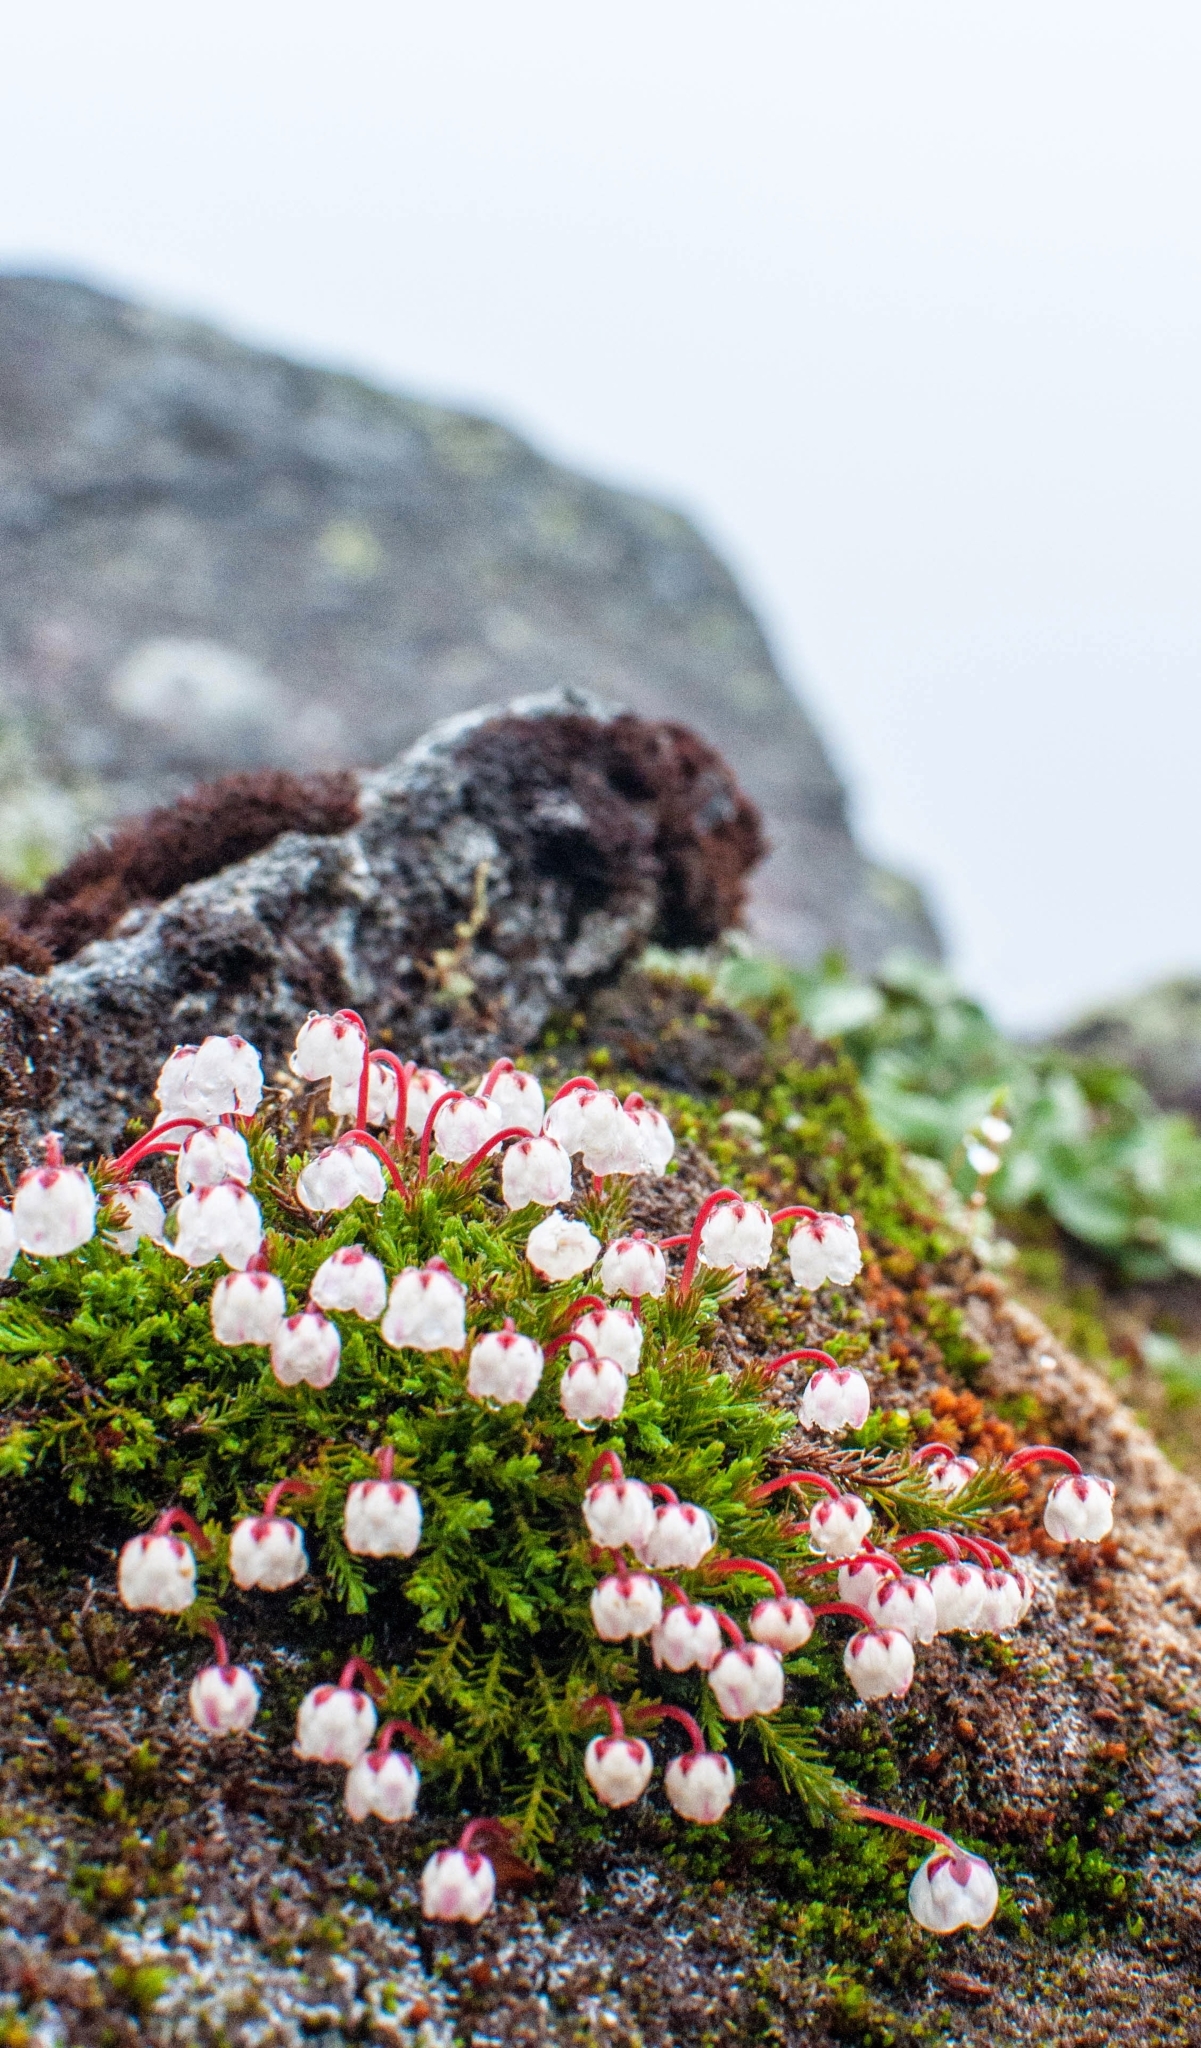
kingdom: Plantae
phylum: Tracheophyta
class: Magnoliopsida
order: Ericales
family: Ericaceae
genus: Harrimanella
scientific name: Harrimanella hypnoides
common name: Moss bell heather
